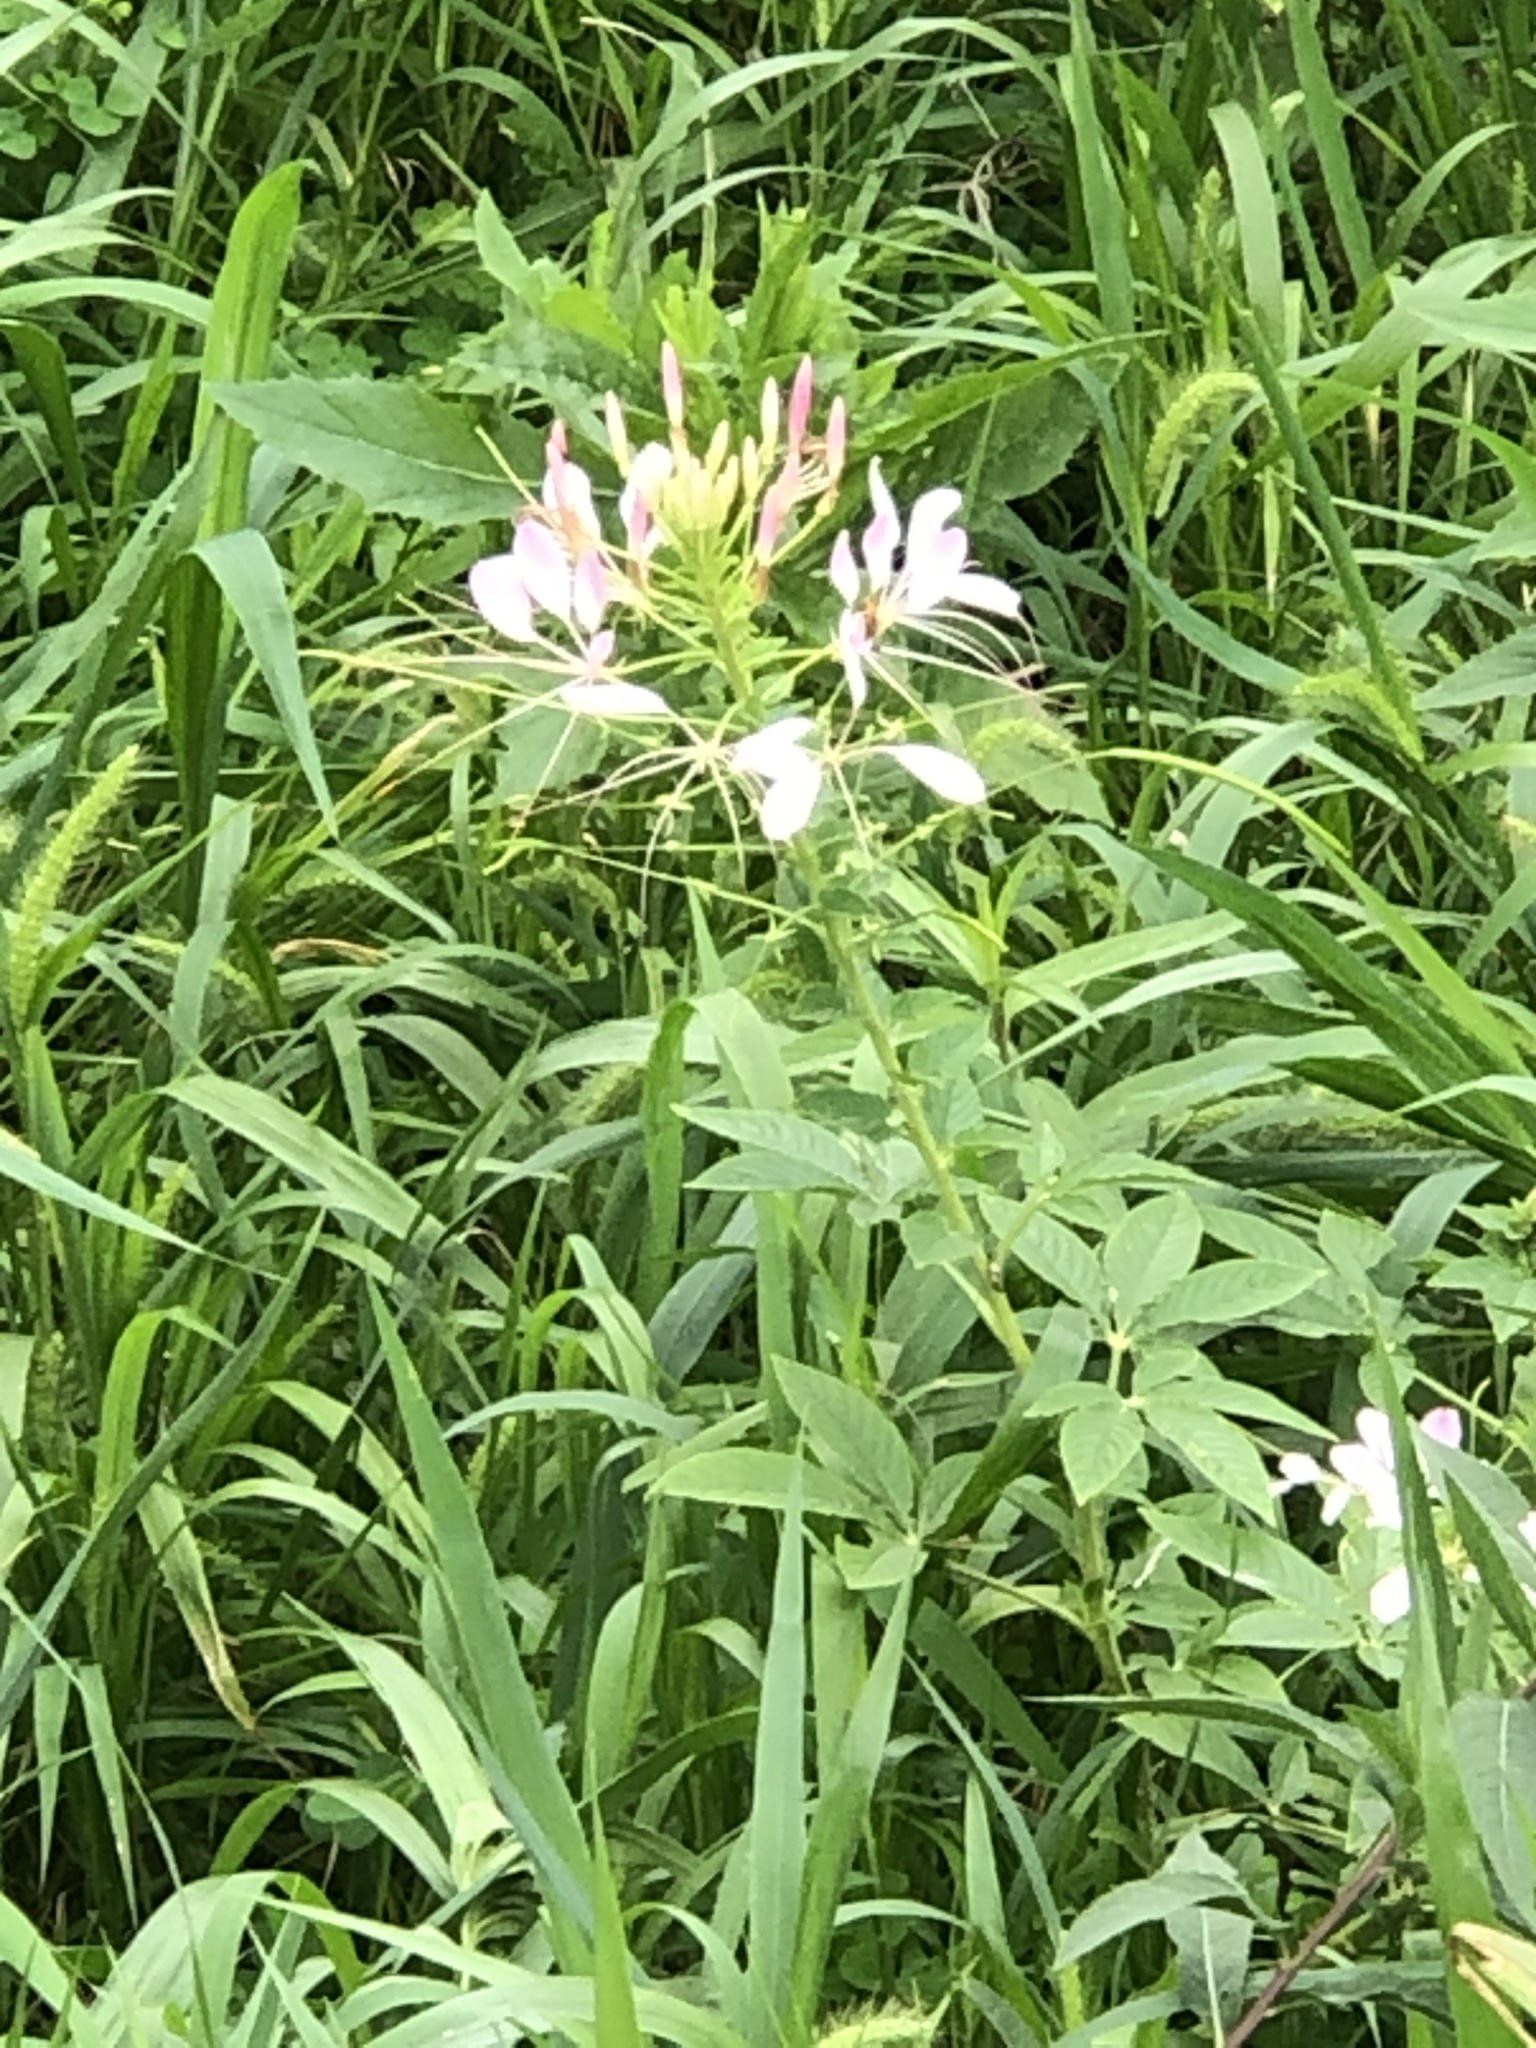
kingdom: Plantae
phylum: Tracheophyta
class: Magnoliopsida
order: Brassicales
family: Cleomaceae
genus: Tarenaya
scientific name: Tarenaya houtteana
